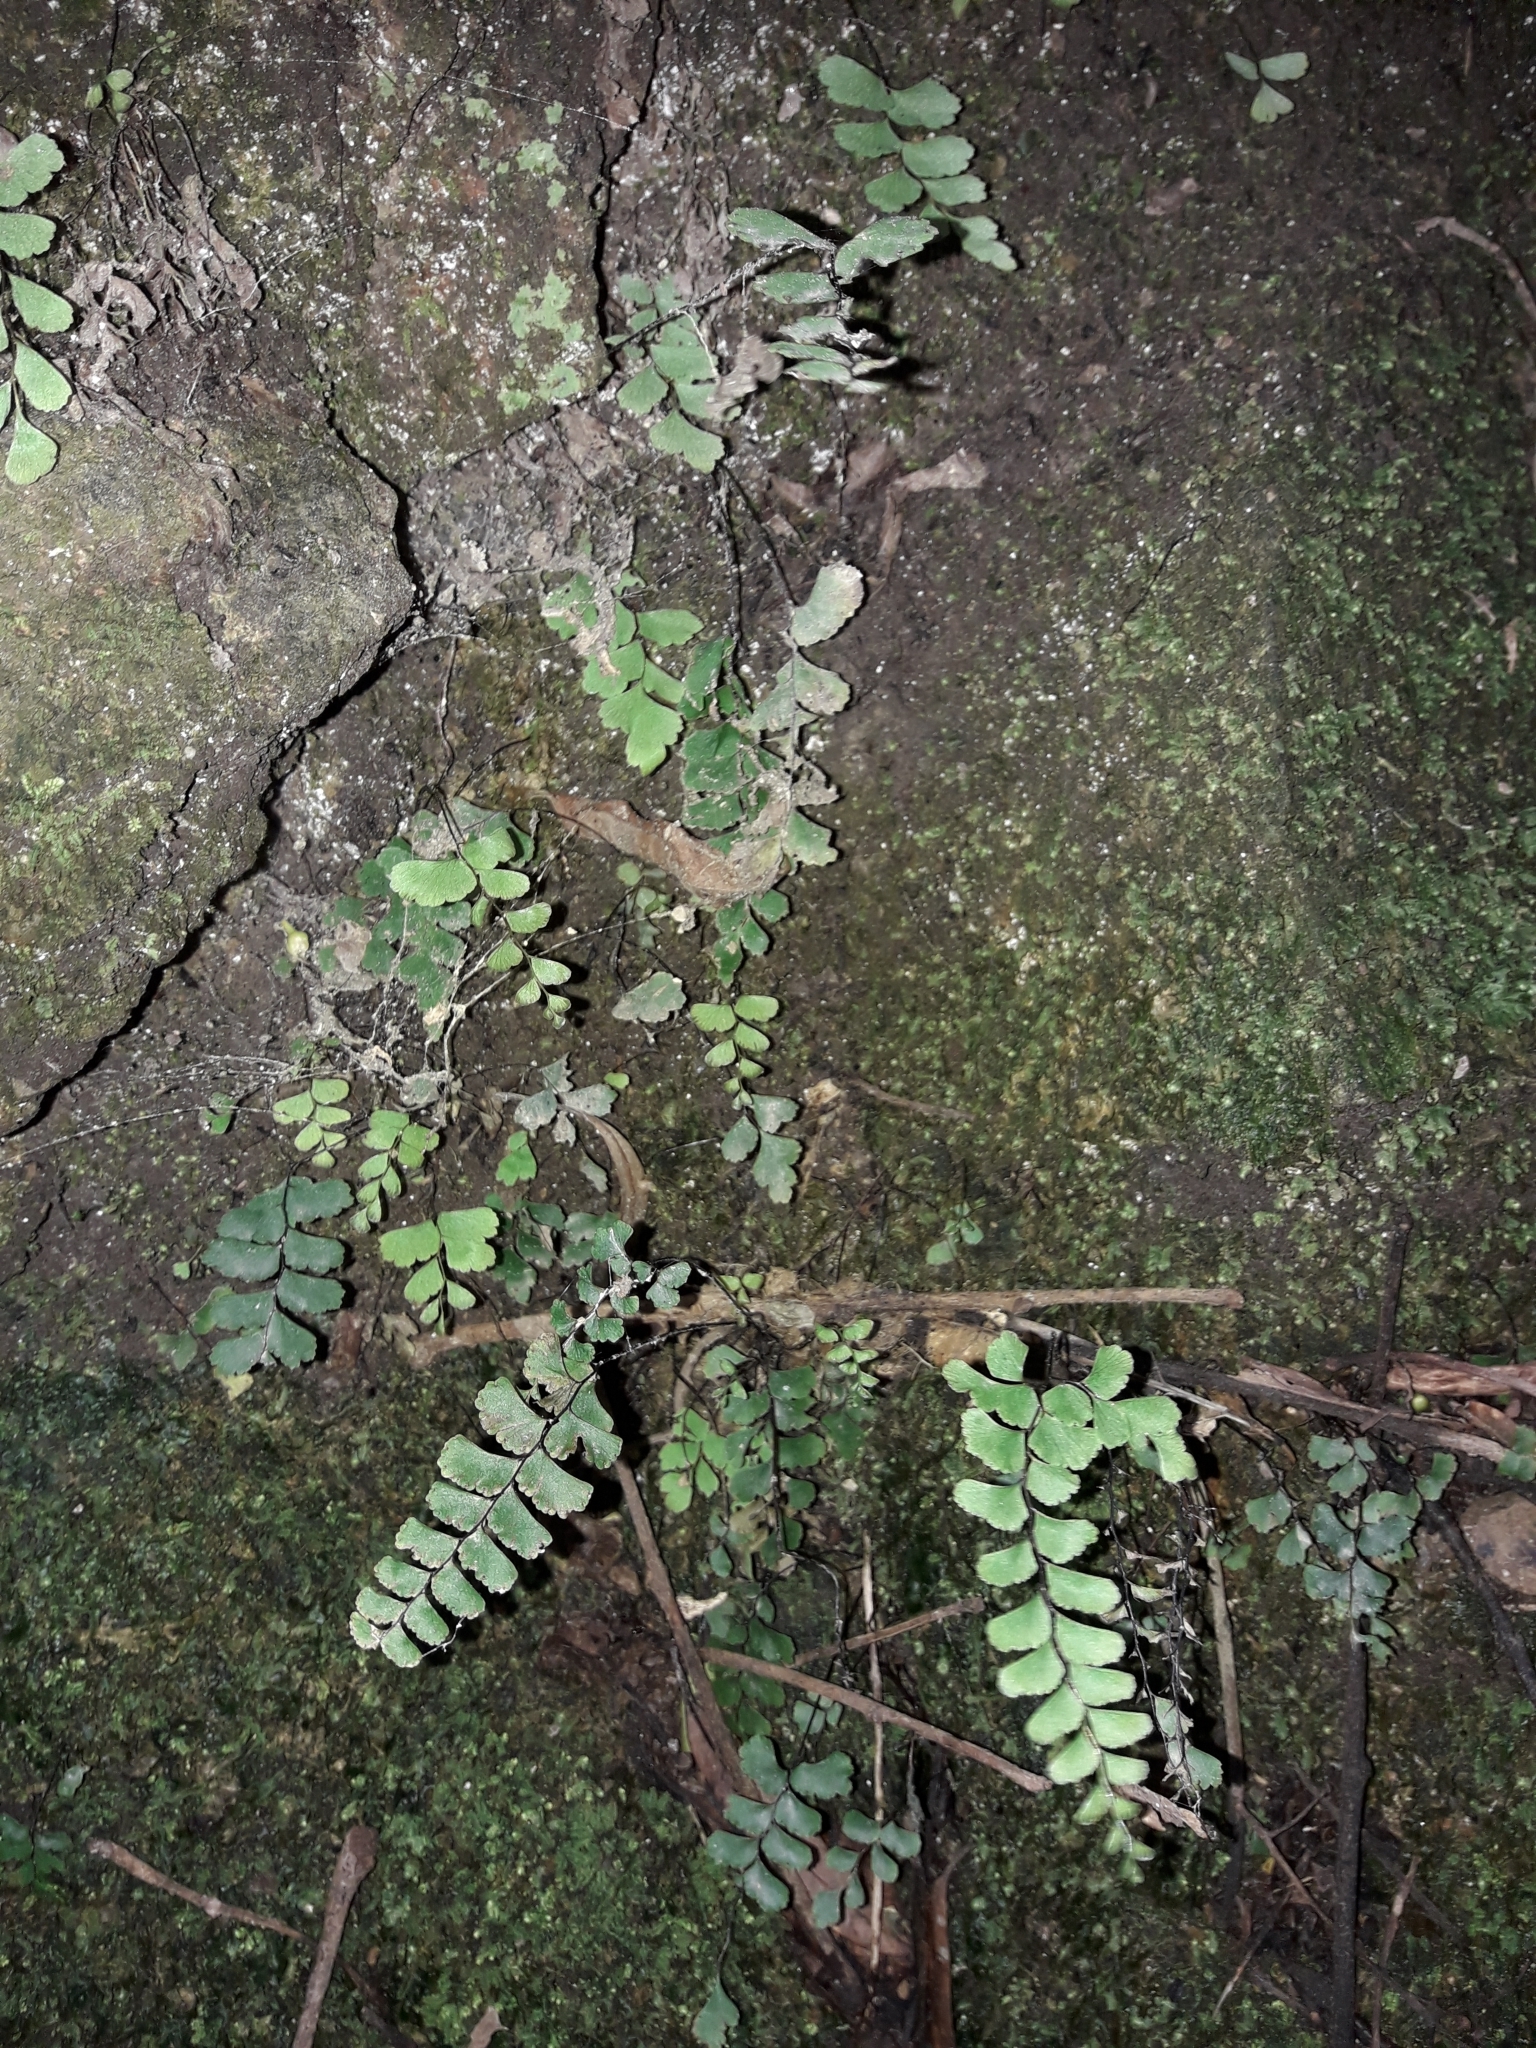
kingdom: Plantae
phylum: Tracheophyta
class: Polypodiopsida
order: Polypodiales
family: Pteridaceae
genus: Adiantum
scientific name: Adiantum diaphanum
